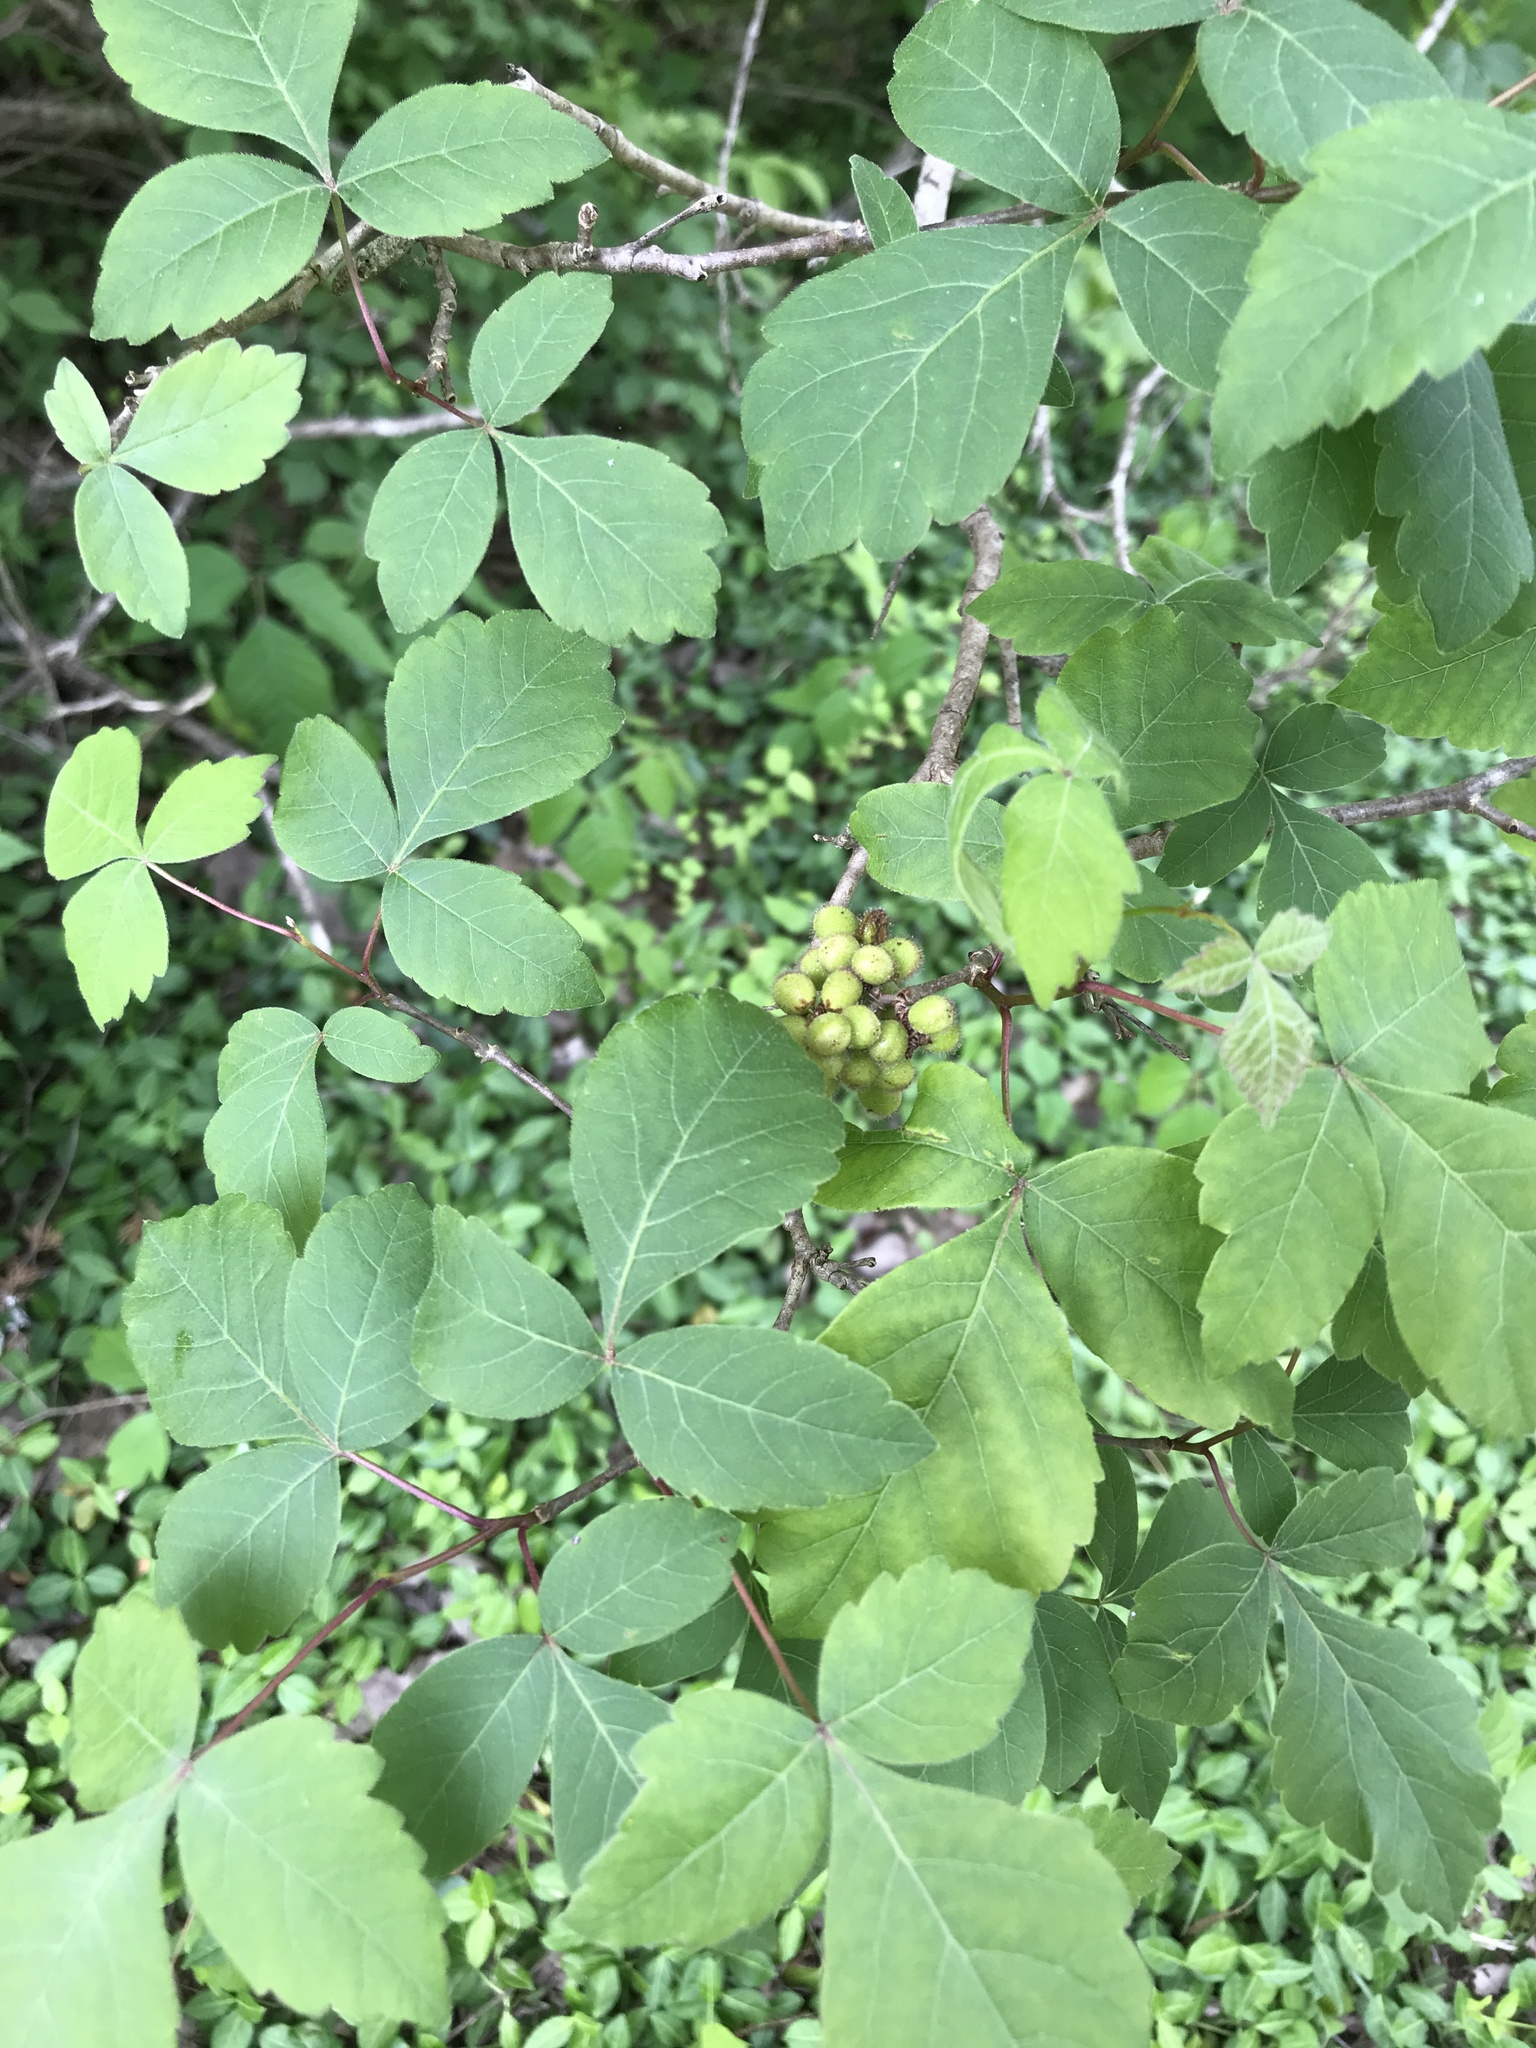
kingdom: Plantae
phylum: Tracheophyta
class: Magnoliopsida
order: Sapindales
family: Anacardiaceae
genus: Rhus
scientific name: Rhus aromatica
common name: Aromatic sumac
